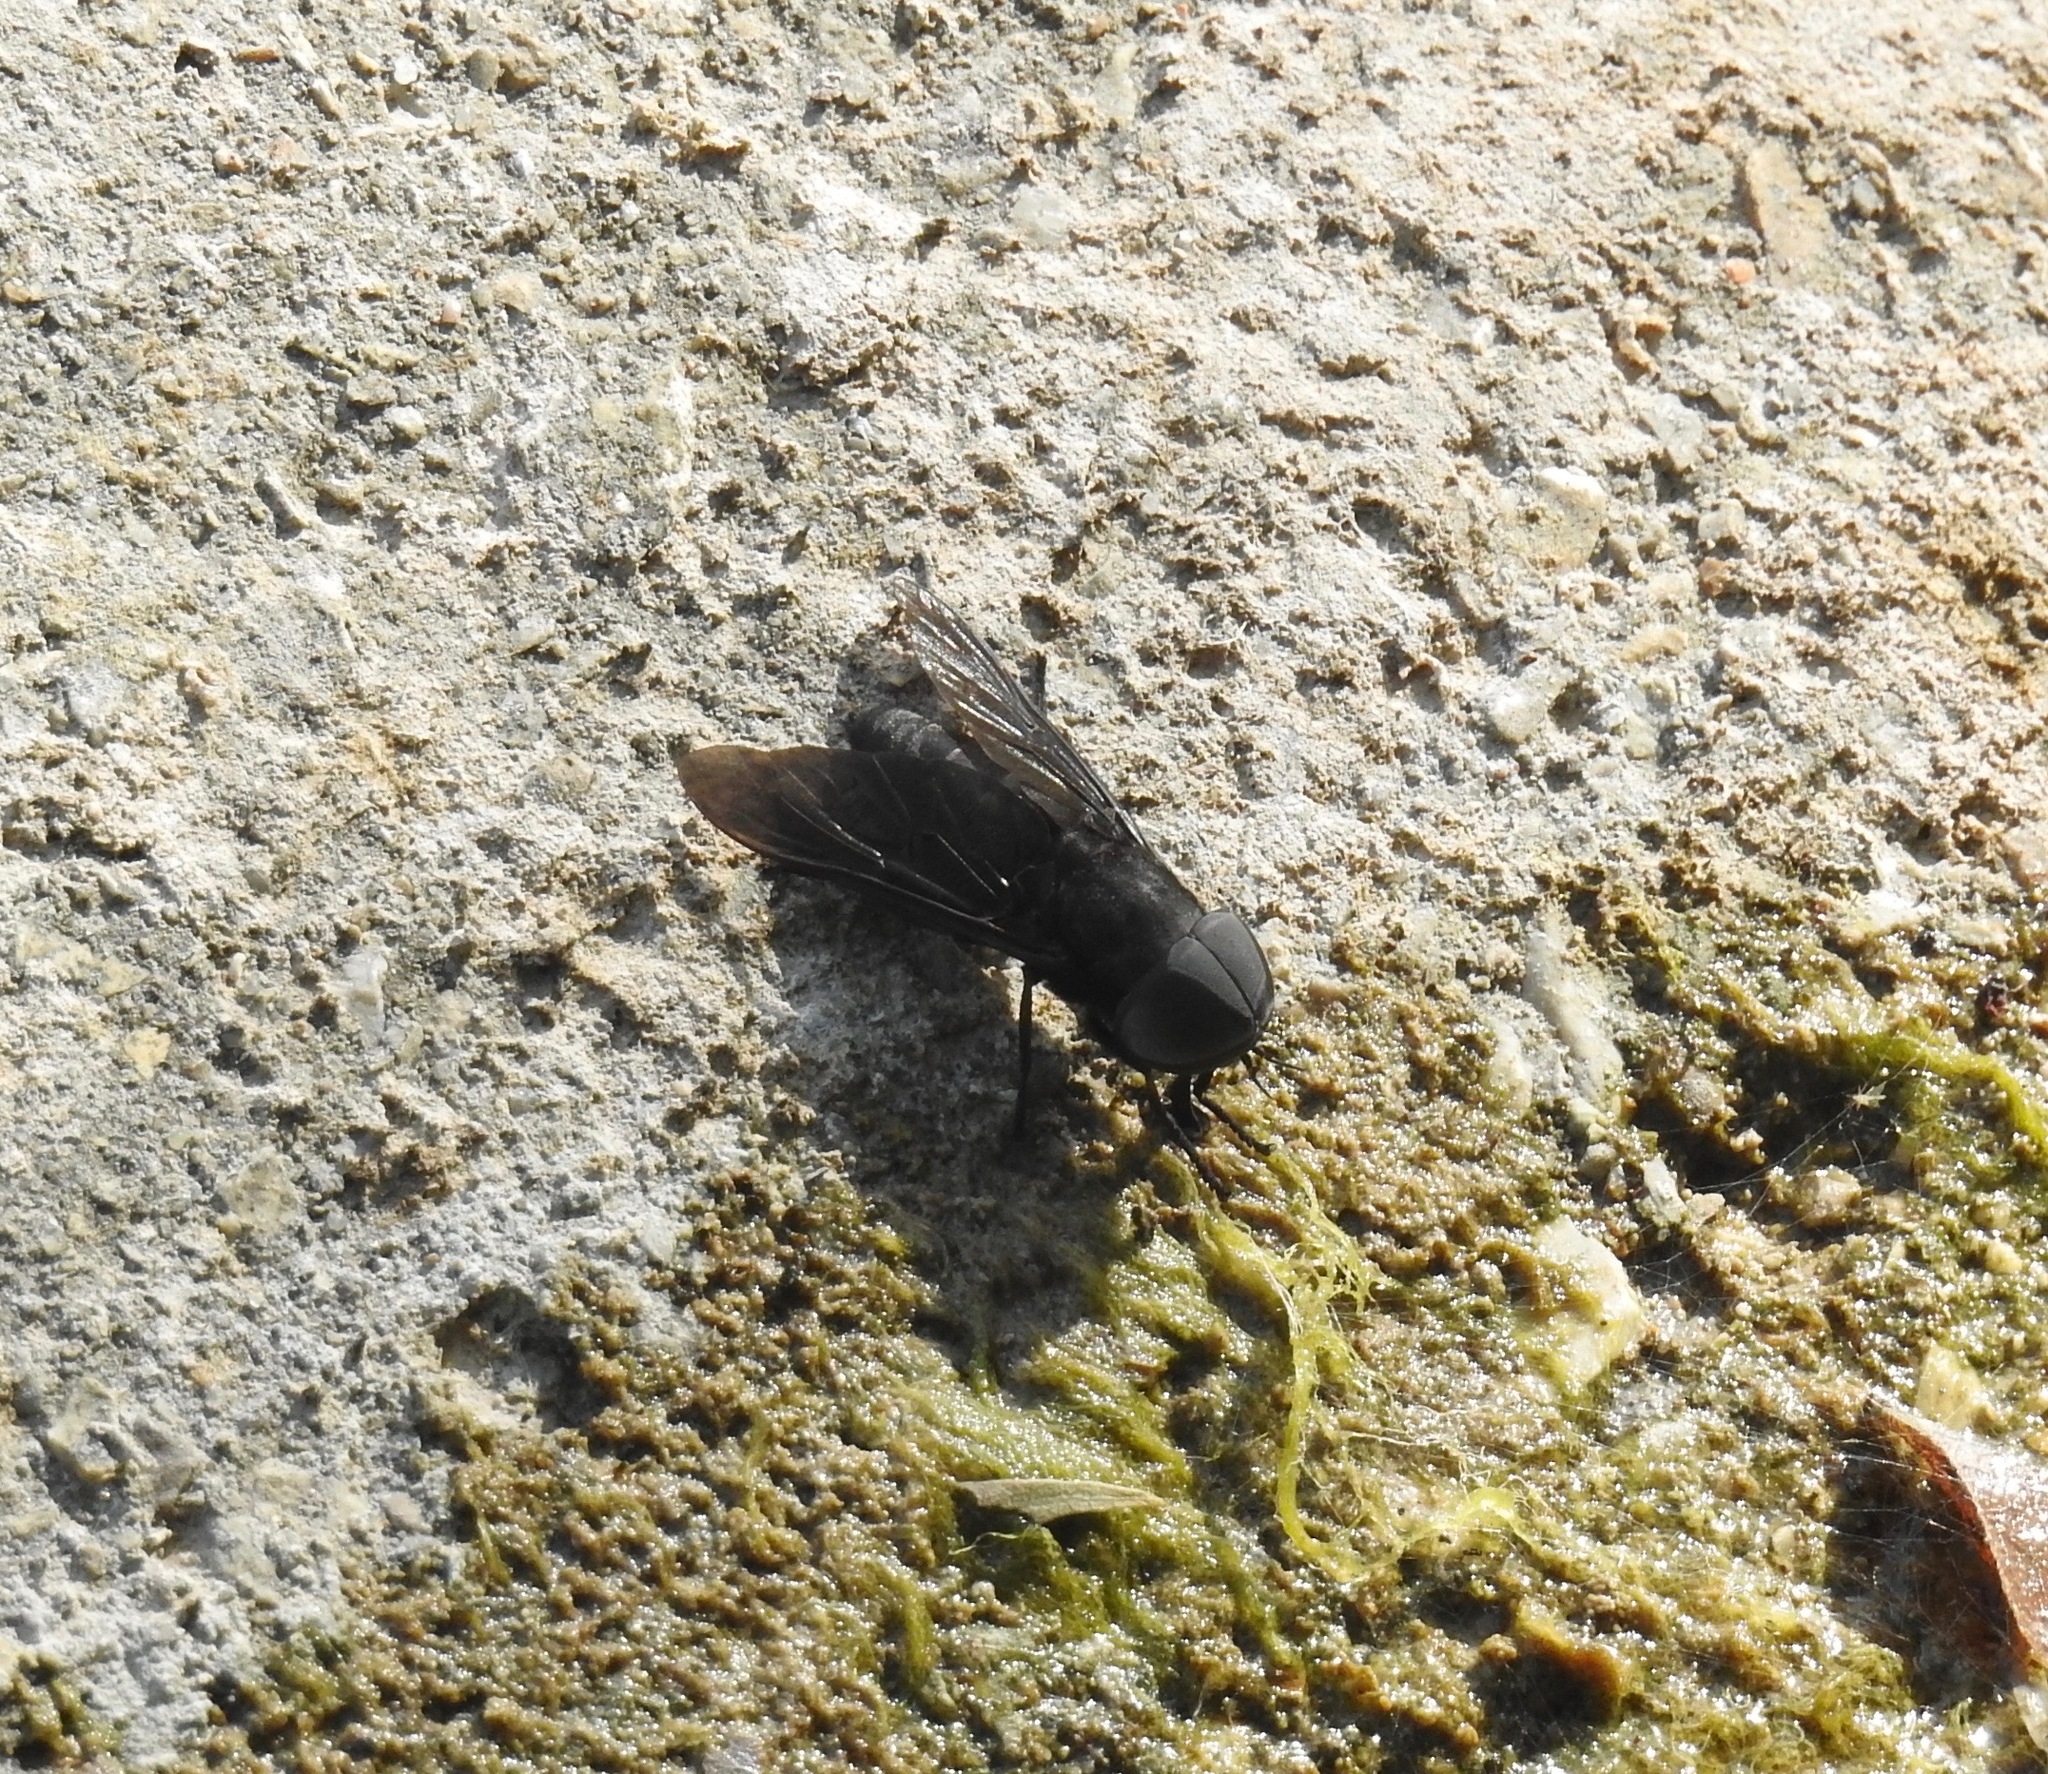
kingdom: Animalia
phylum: Arthropoda
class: Insecta
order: Diptera
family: Tabanidae
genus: Tabanus
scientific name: Tabanus atratus
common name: Black horse fly
